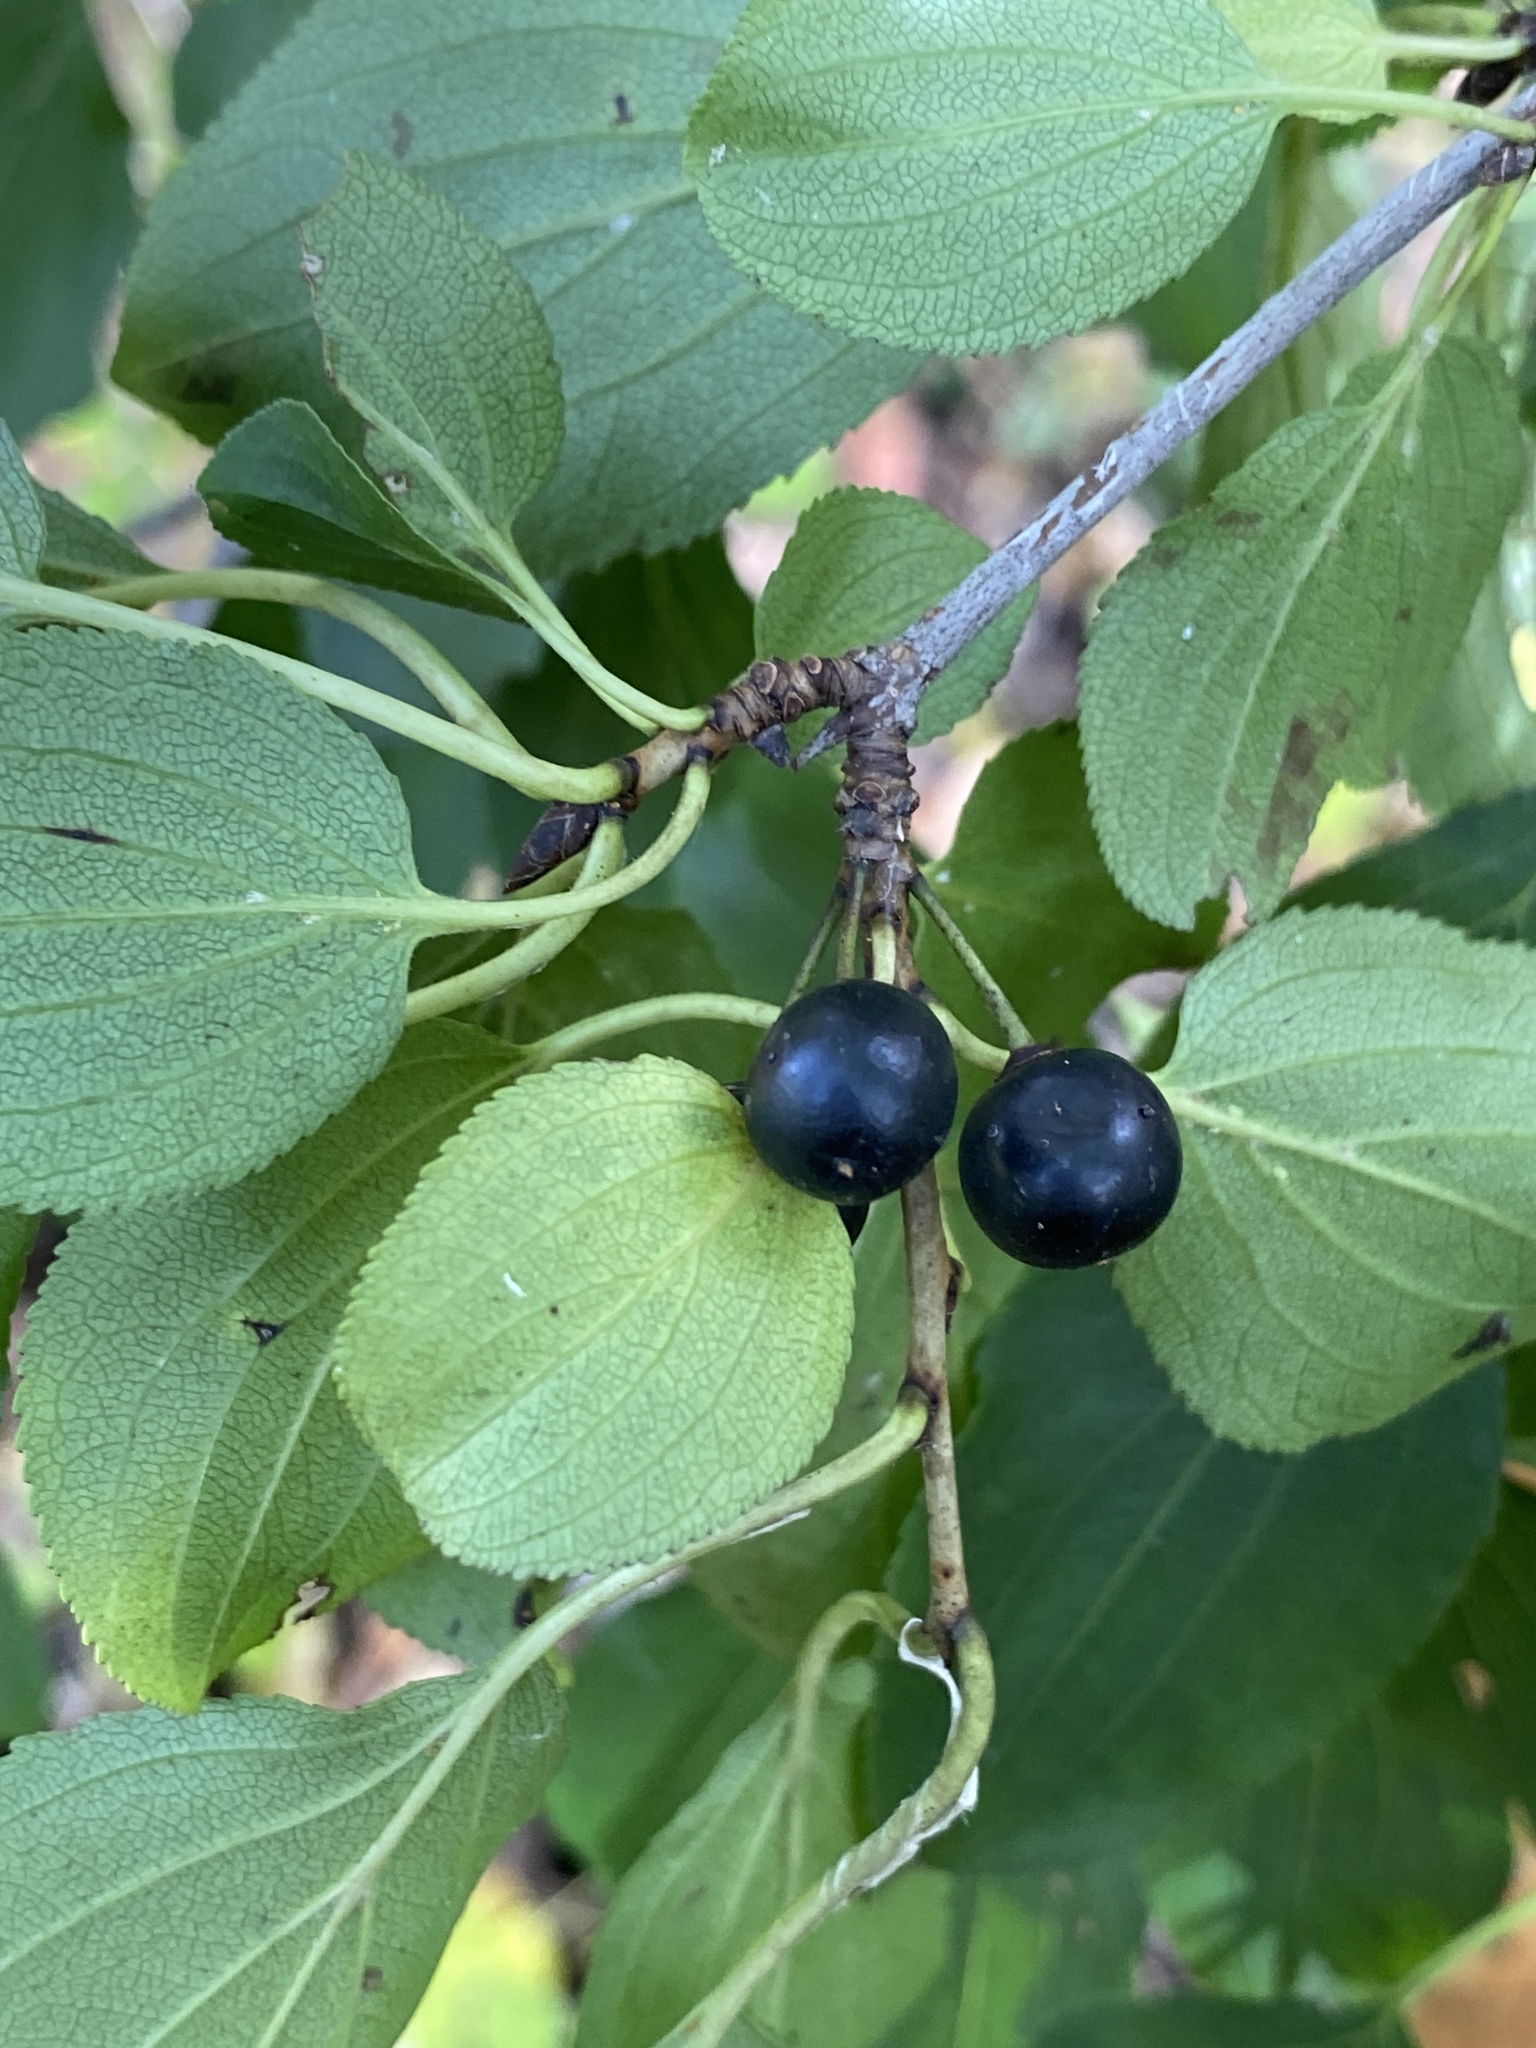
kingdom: Plantae
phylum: Tracheophyta
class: Magnoliopsida
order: Rosales
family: Rhamnaceae
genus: Rhamnus
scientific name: Rhamnus cathartica
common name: Common buckthorn
